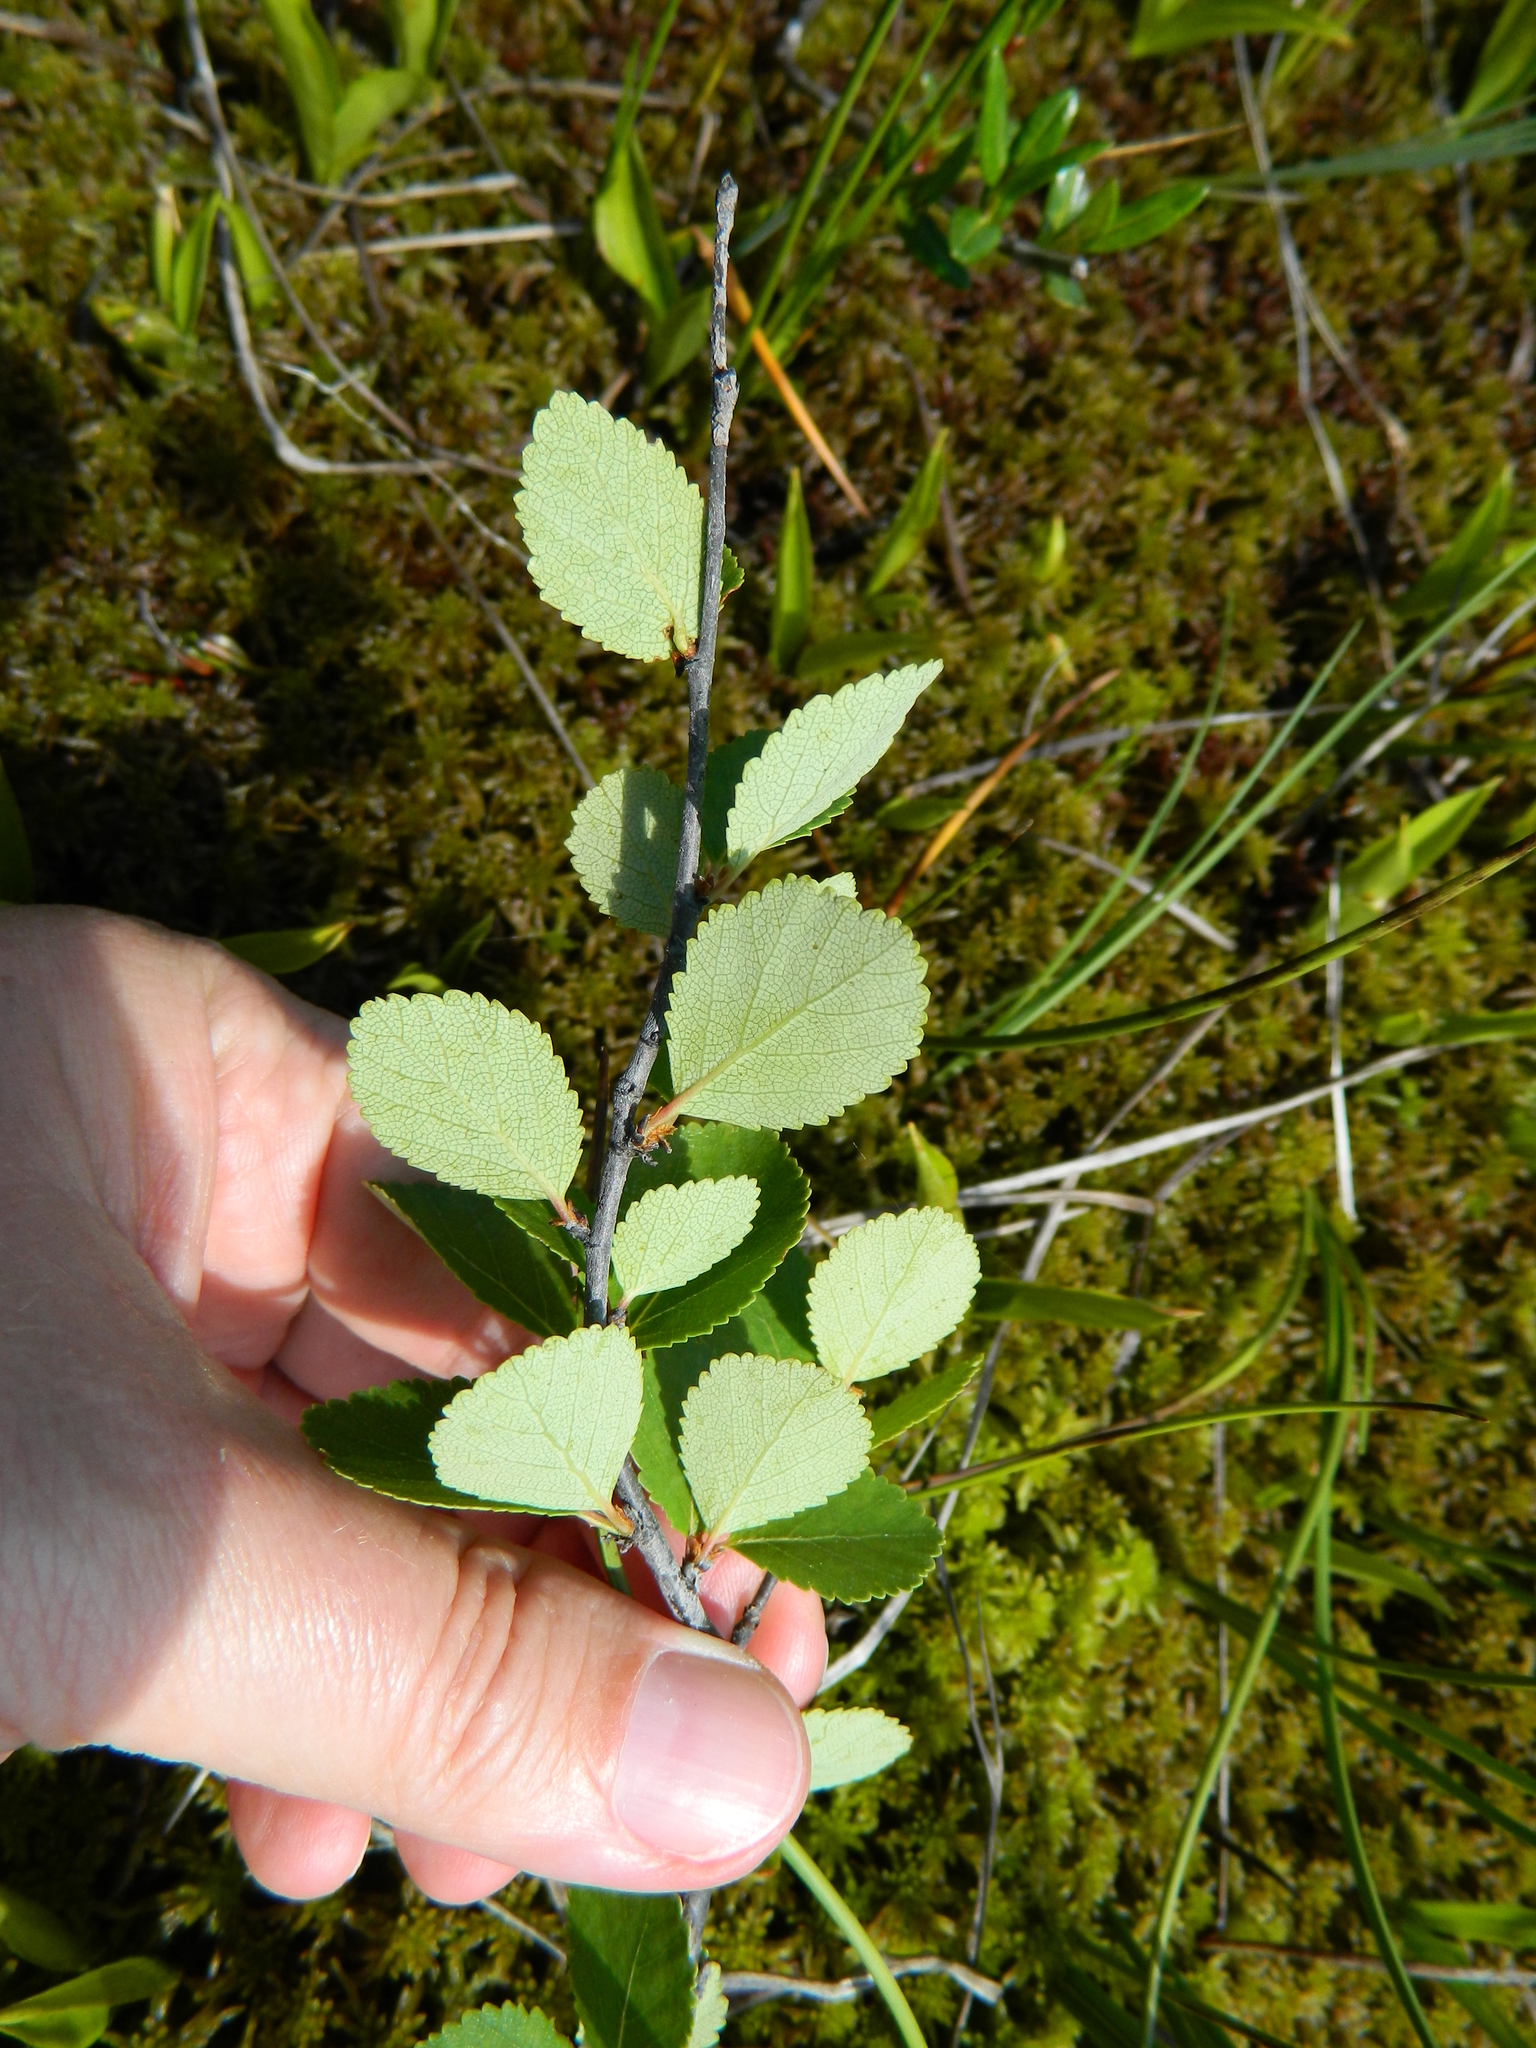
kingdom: Plantae
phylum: Tracheophyta
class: Magnoliopsida
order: Fagales
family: Betulaceae
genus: Betula
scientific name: Betula pumila
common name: Bog birch
